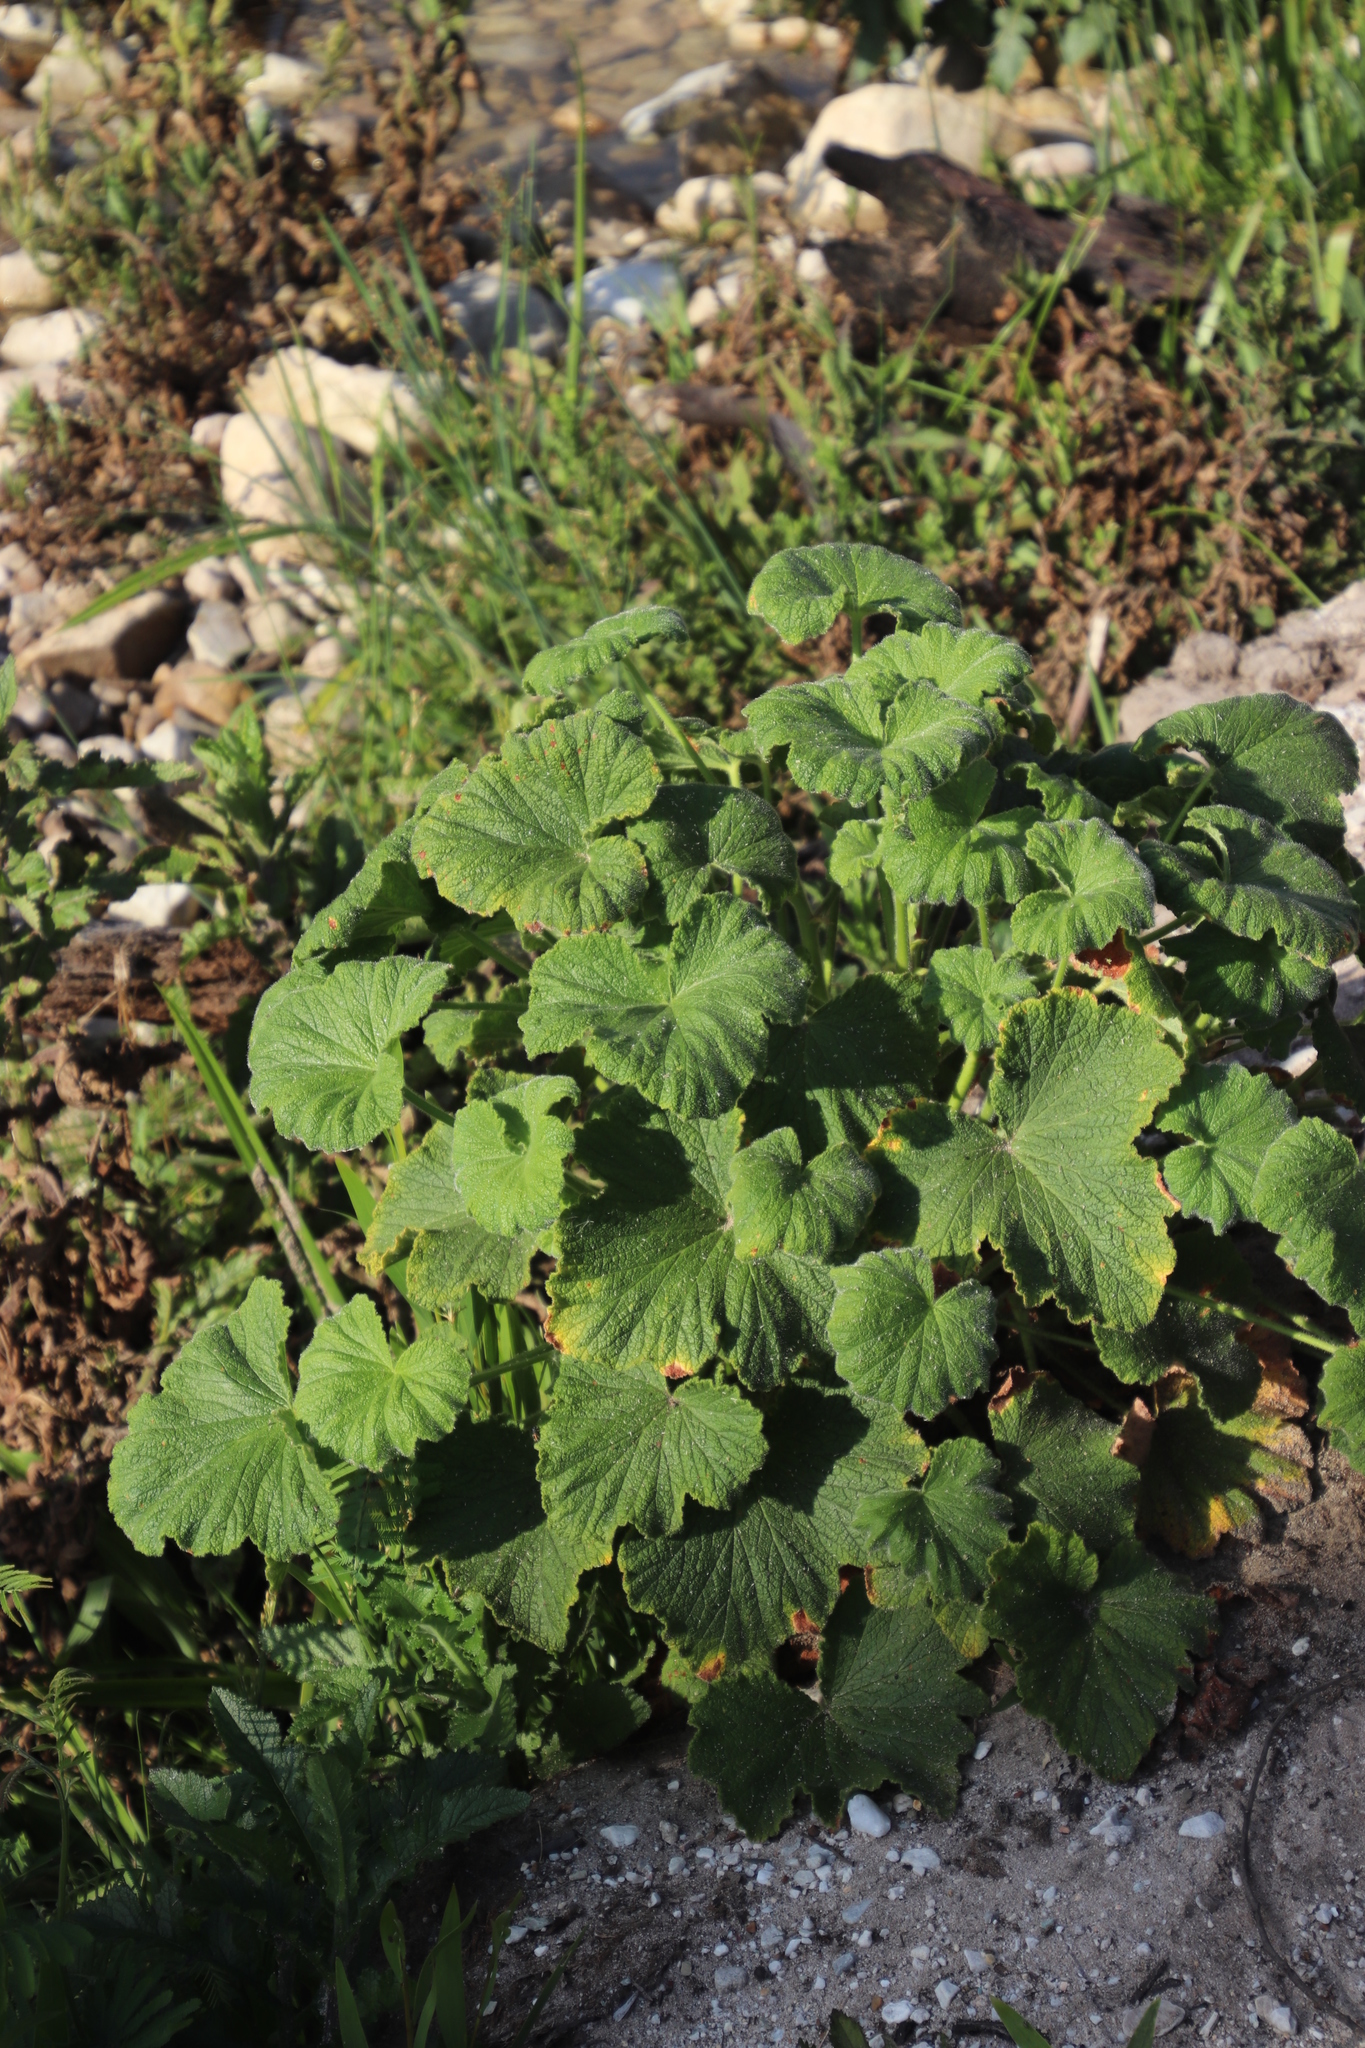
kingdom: Plantae
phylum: Tracheophyta
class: Magnoliopsida
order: Geraniales
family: Geraniaceae
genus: Pelargonium
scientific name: Pelargonium papilionaceum
